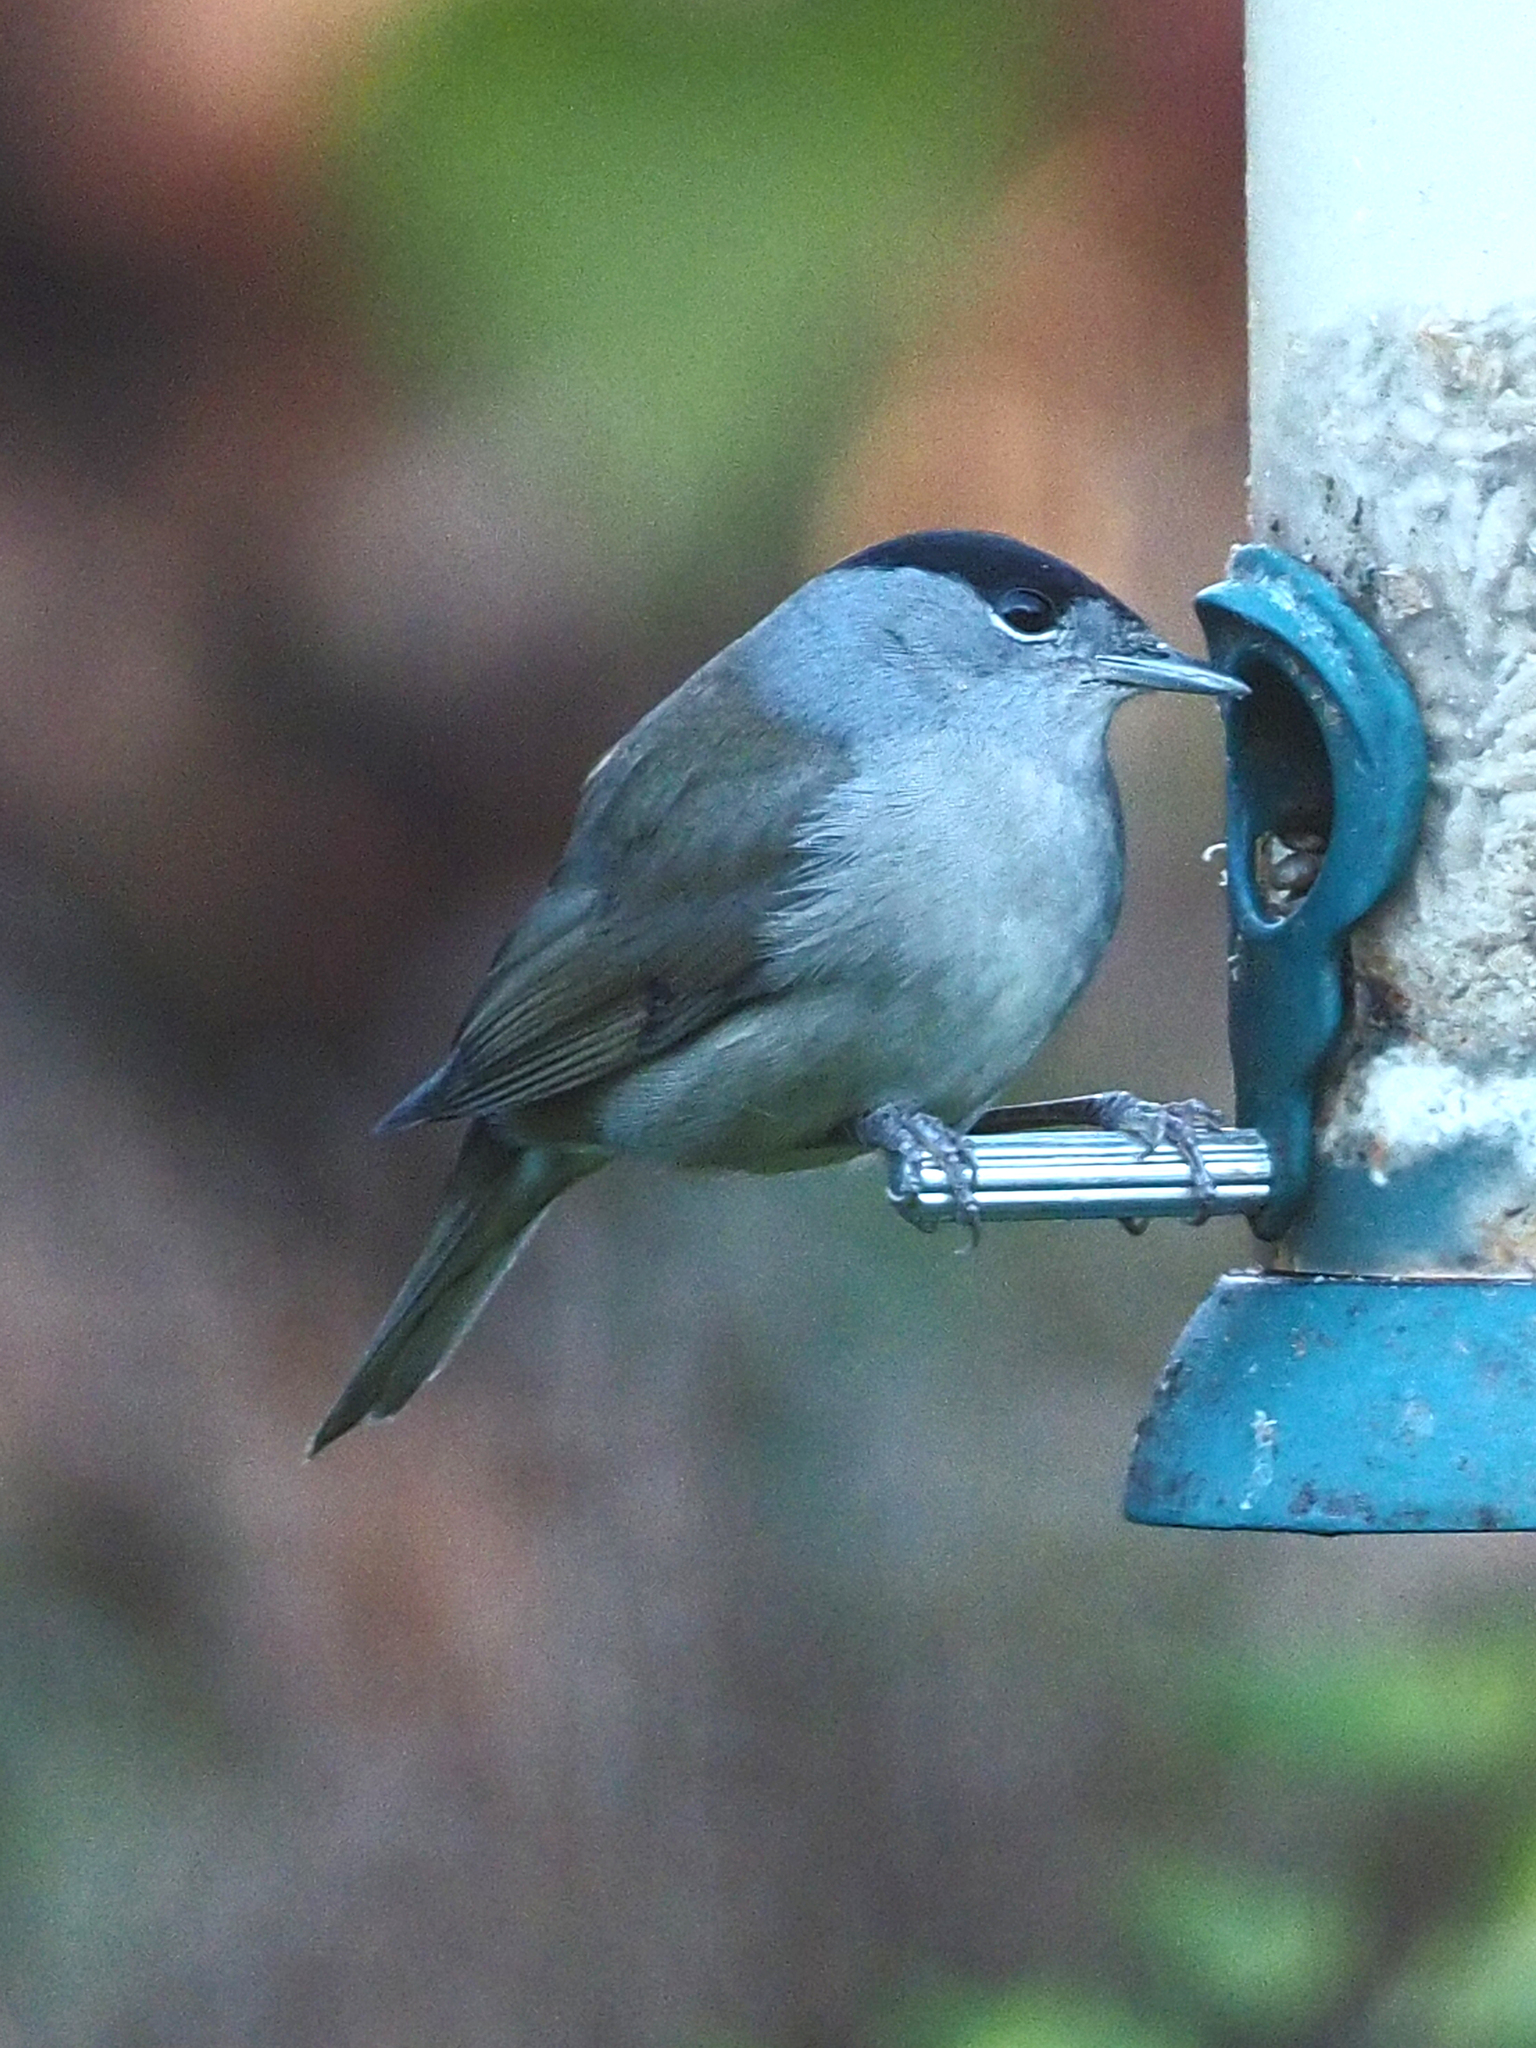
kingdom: Animalia
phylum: Chordata
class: Aves
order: Passeriformes
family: Sylviidae
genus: Sylvia
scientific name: Sylvia atricapilla
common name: Eurasian blackcap
